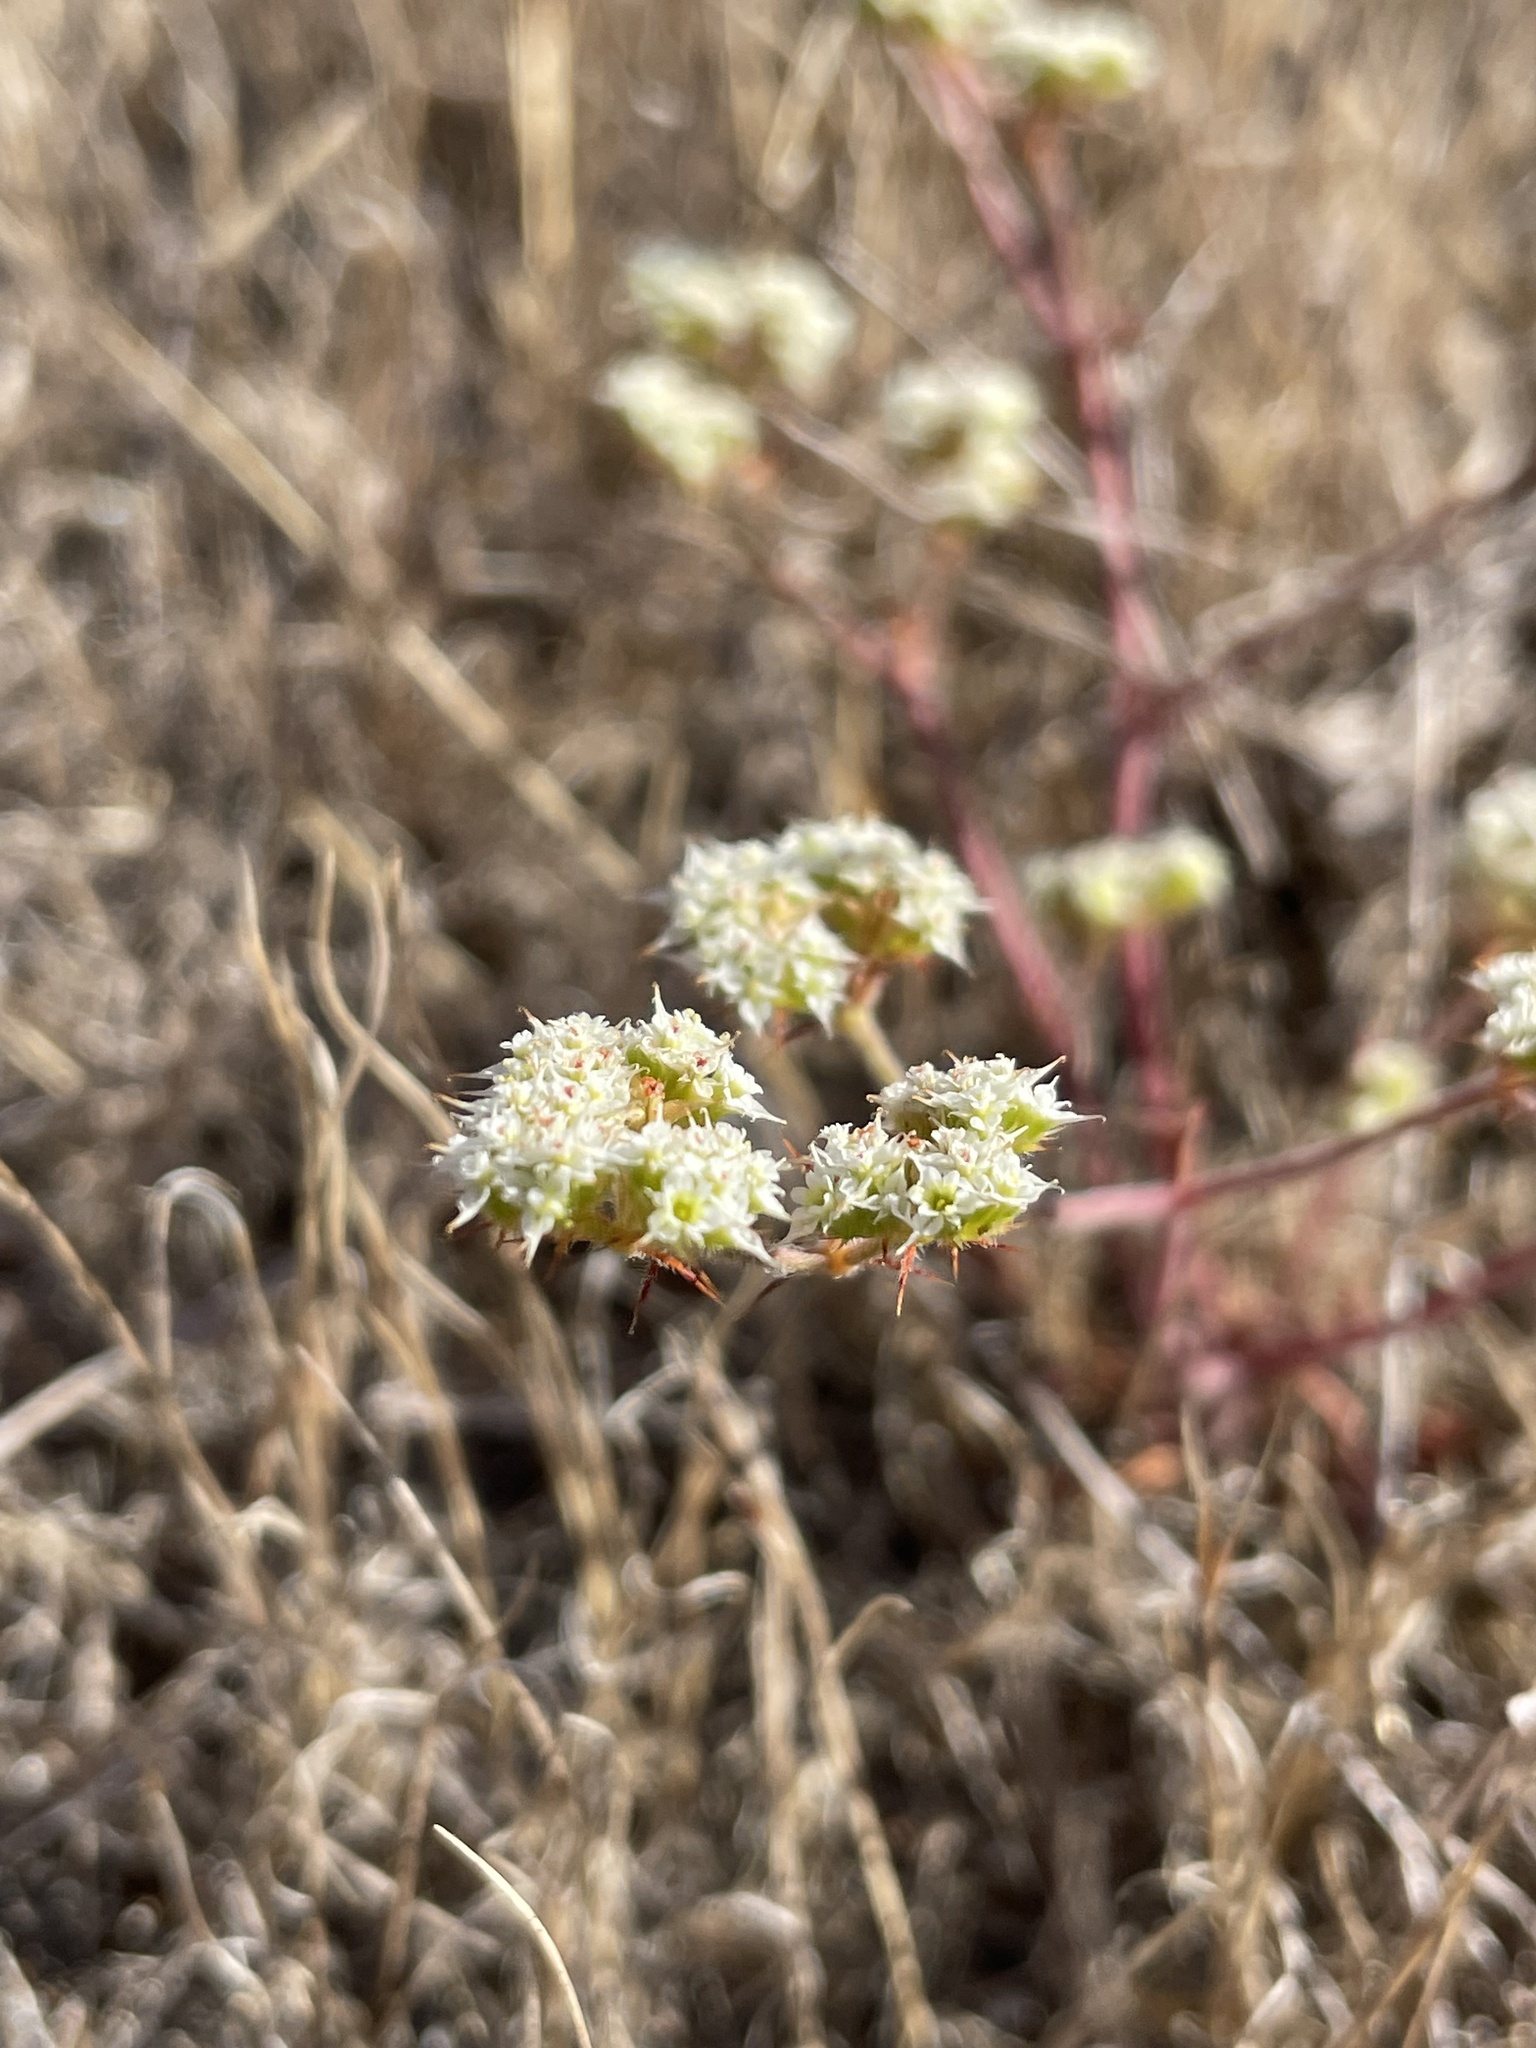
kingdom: Plantae
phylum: Tracheophyta
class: Magnoliopsida
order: Caryophyllales
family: Polygonaceae
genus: Chorizanthe
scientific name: Chorizanthe diffusa
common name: Diffuse spineflower
